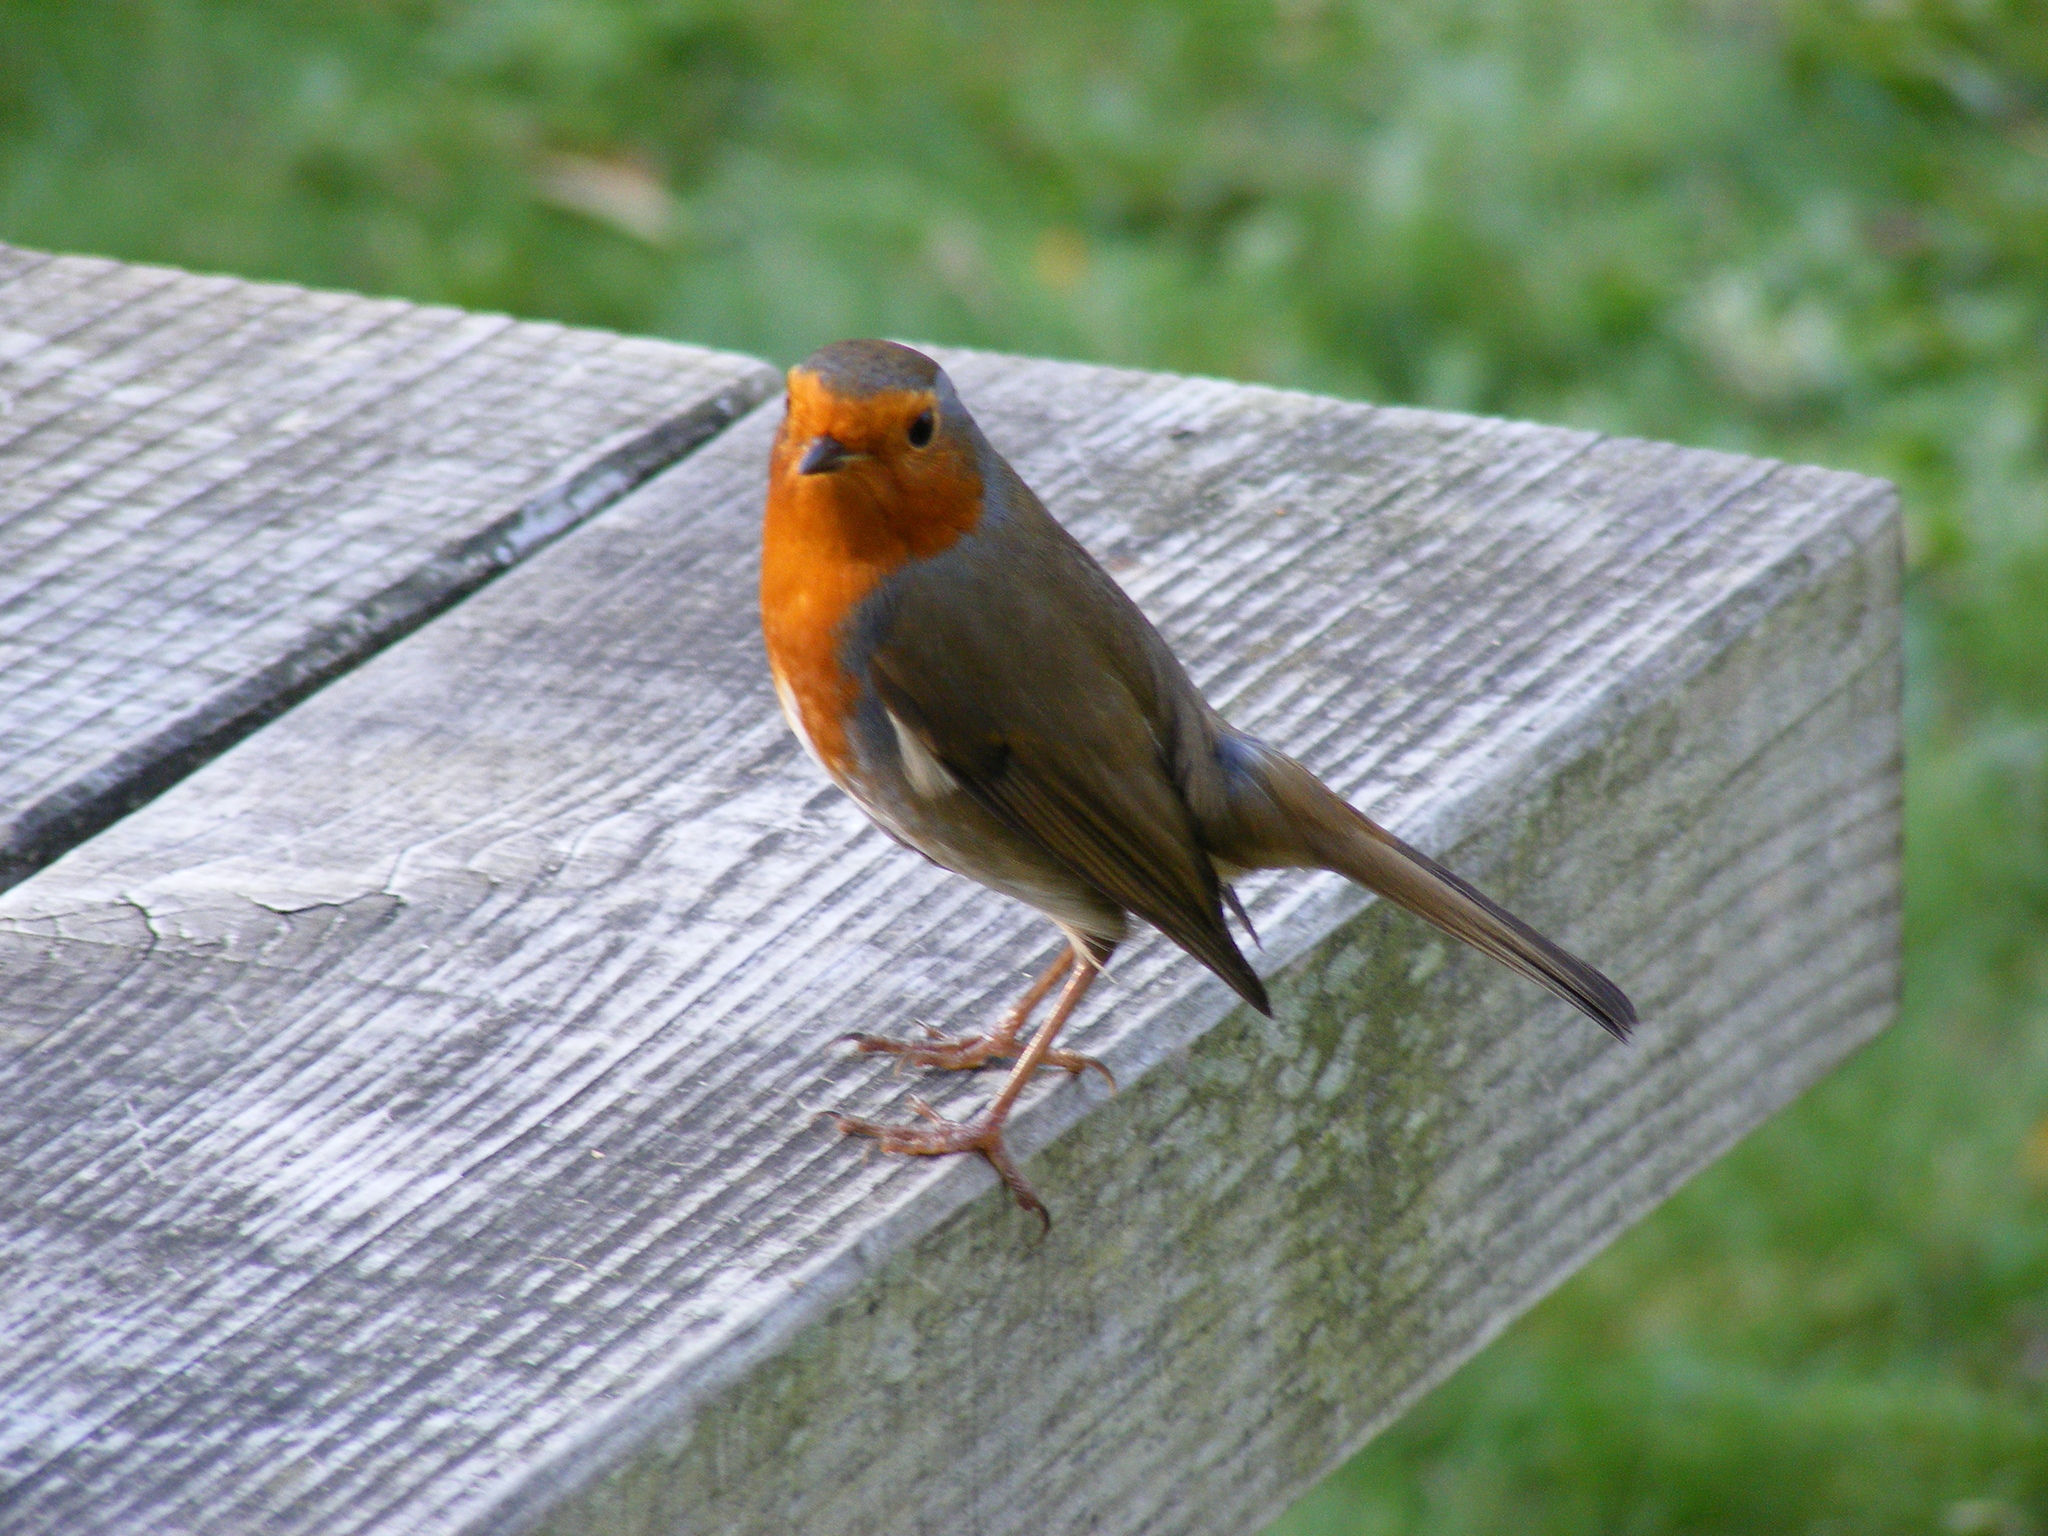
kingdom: Animalia
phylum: Chordata
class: Aves
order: Passeriformes
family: Muscicapidae
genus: Erithacus
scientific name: Erithacus rubecula
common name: European robin
